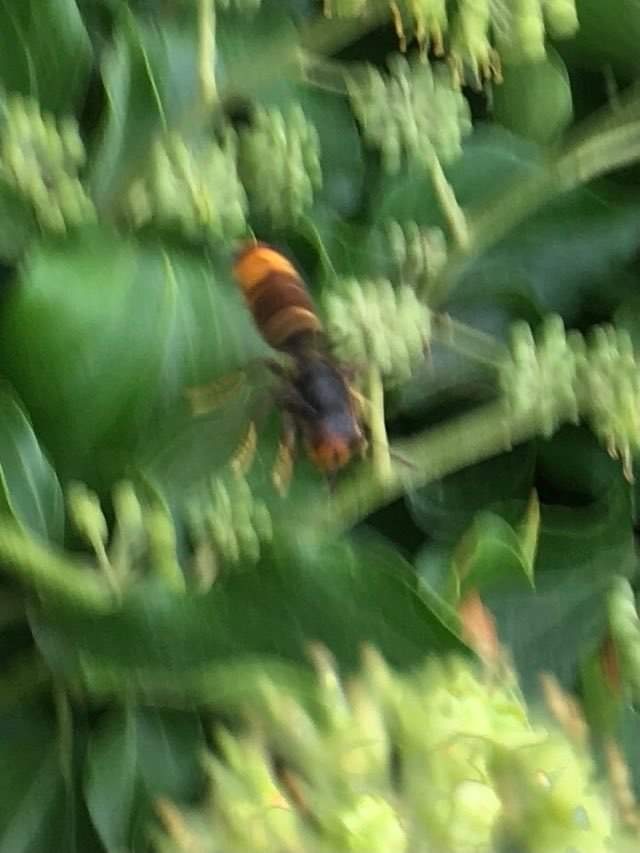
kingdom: Animalia
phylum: Arthropoda
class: Insecta
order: Hymenoptera
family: Vespidae
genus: Vespa
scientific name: Vespa velutina
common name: Asian hornet
